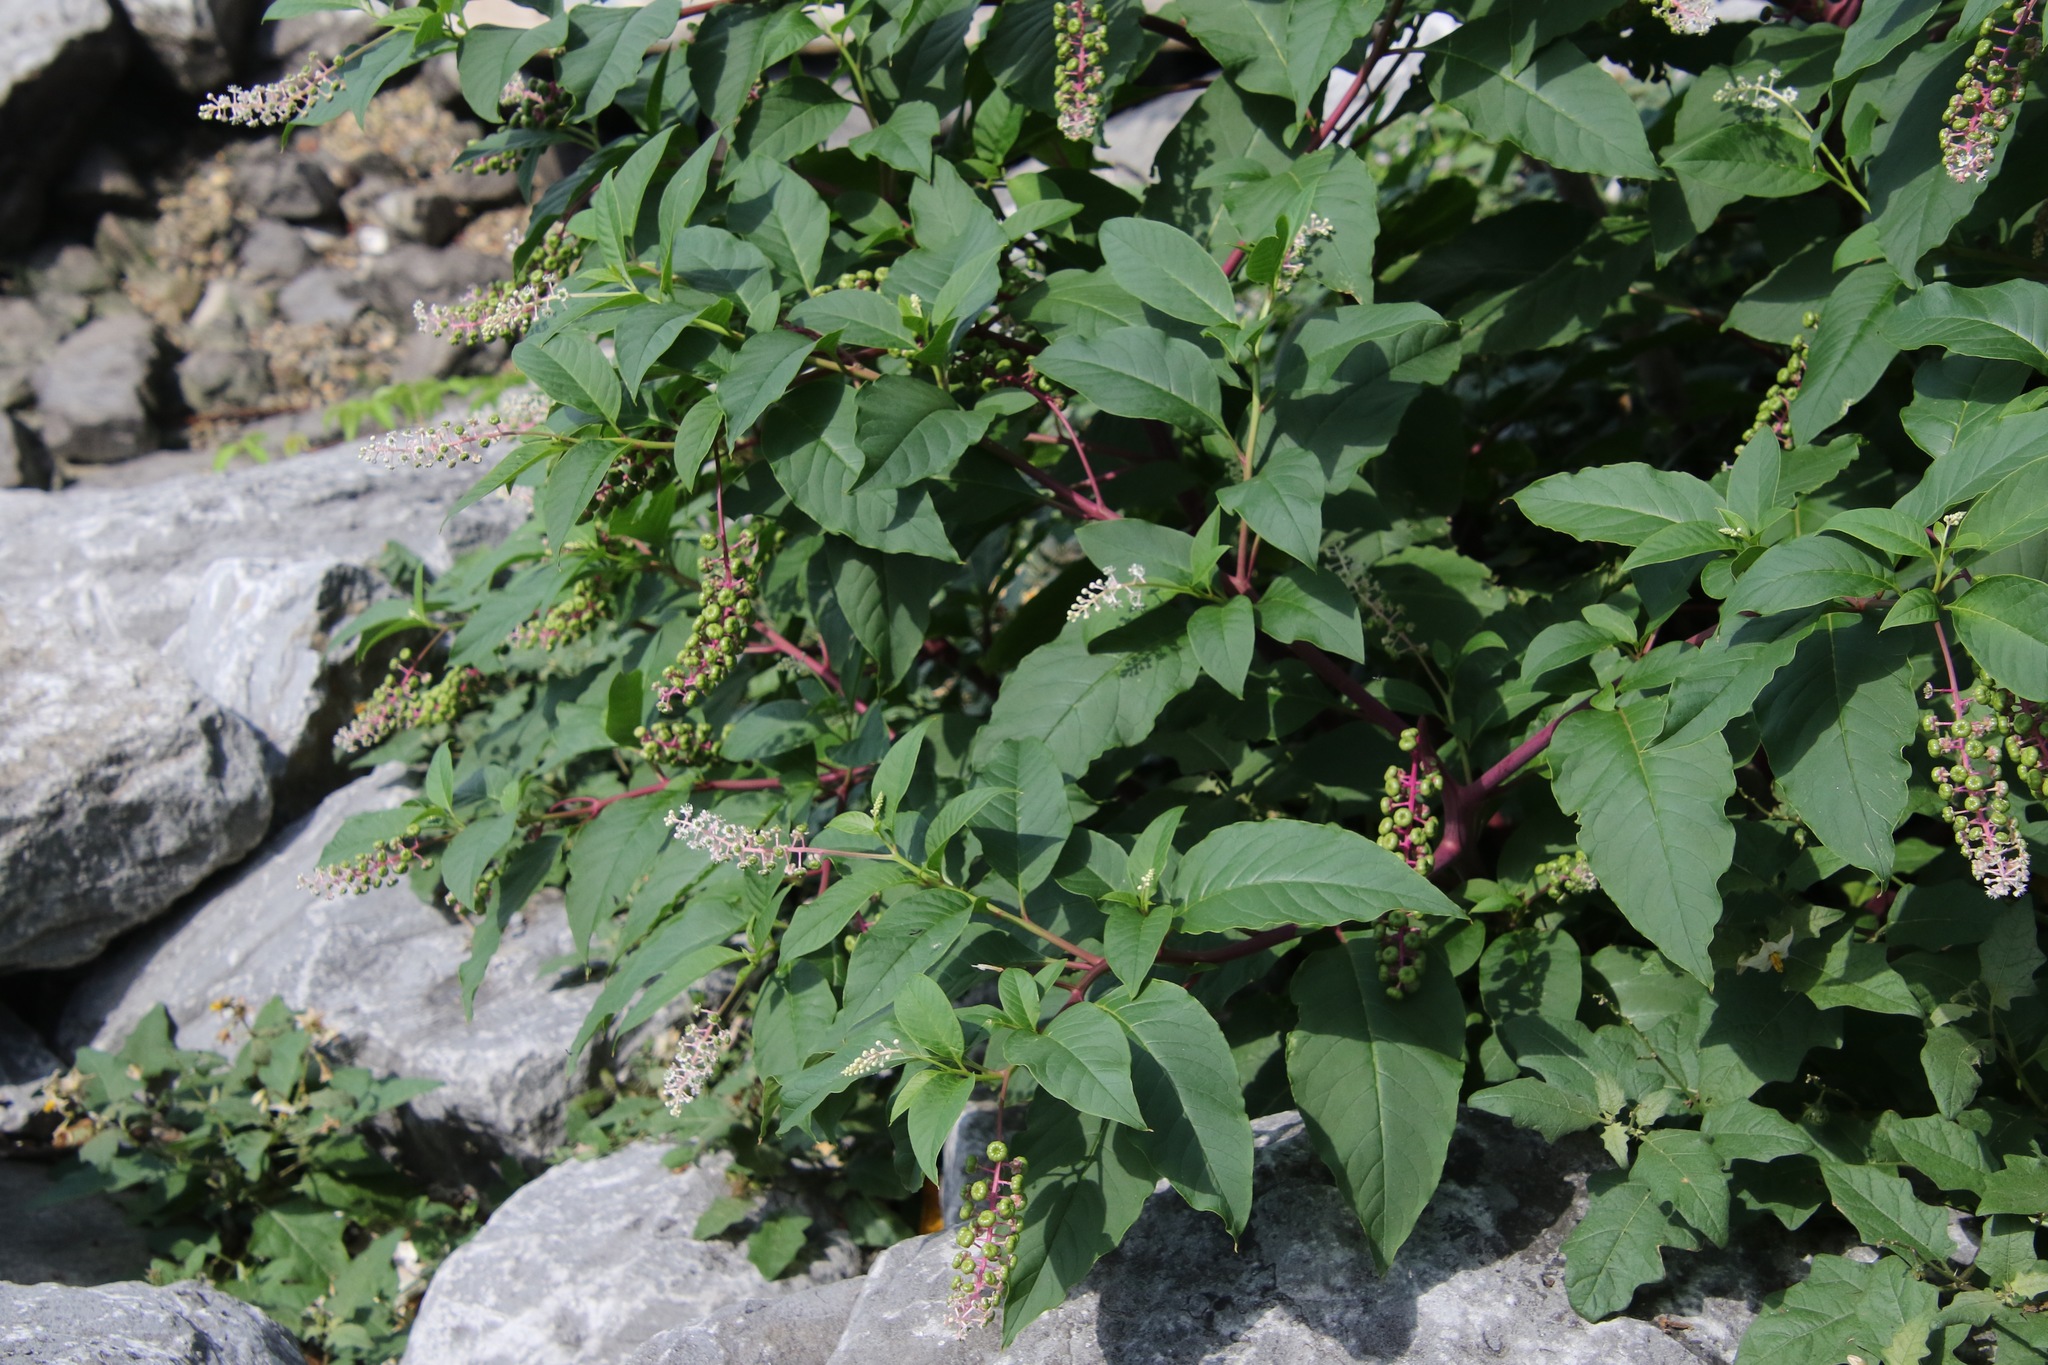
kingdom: Plantae
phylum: Tracheophyta
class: Magnoliopsida
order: Caryophyllales
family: Phytolaccaceae
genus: Phytolacca
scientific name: Phytolacca americana
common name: American pokeweed
